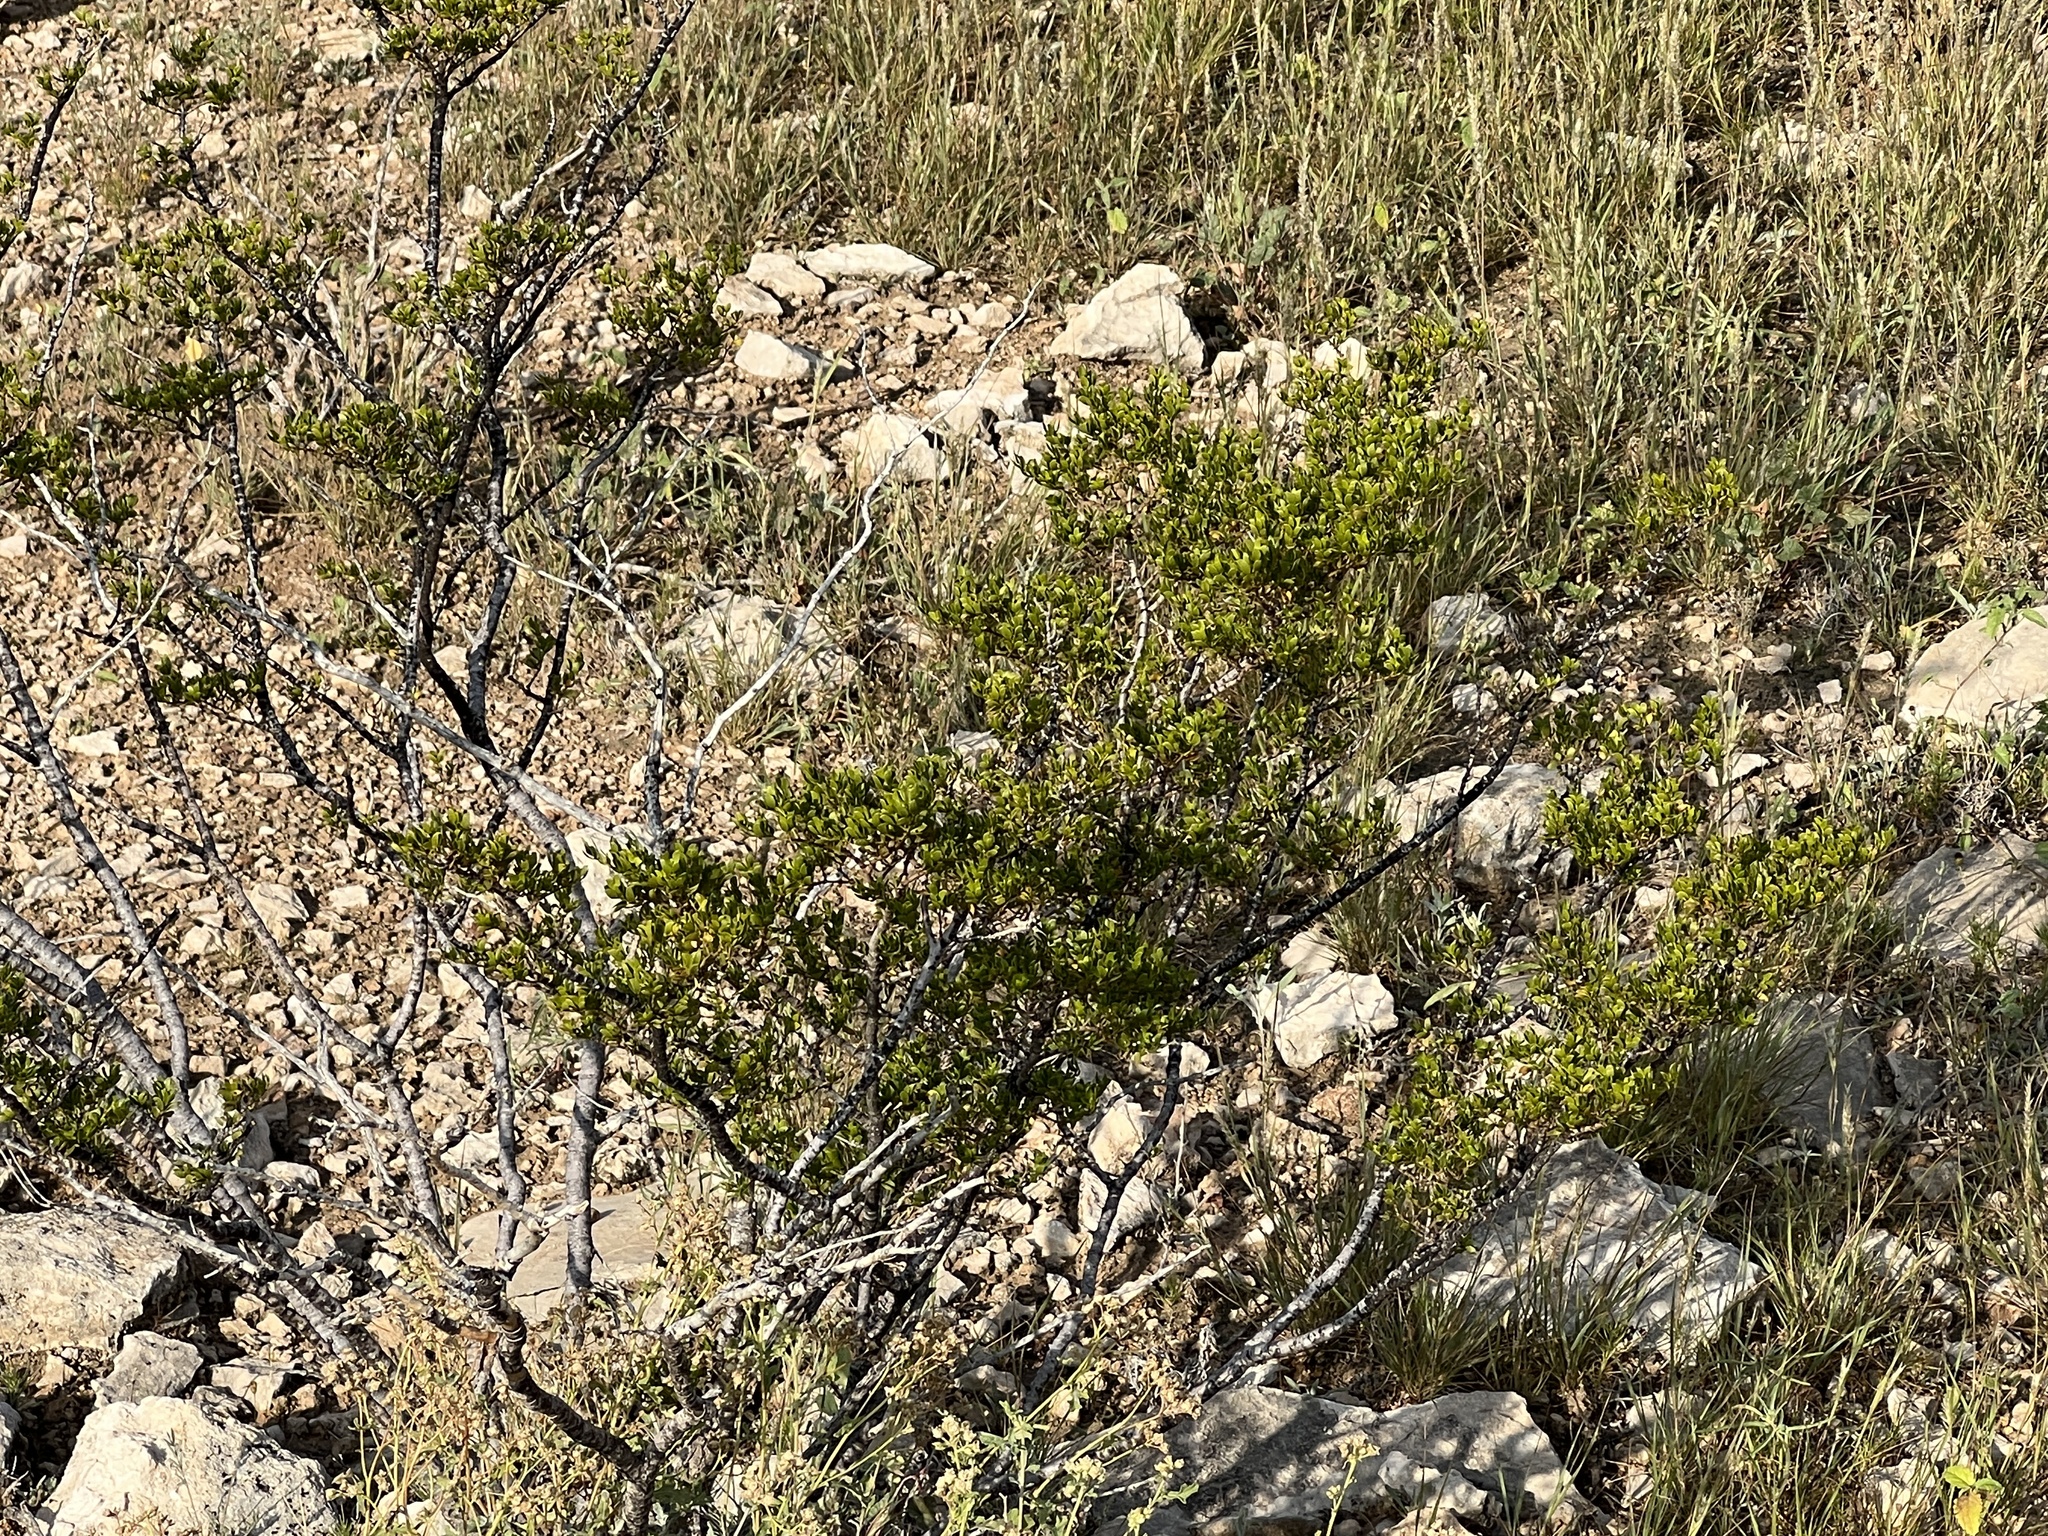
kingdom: Plantae
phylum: Tracheophyta
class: Magnoliopsida
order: Zygophyllales
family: Zygophyllaceae
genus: Larrea
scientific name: Larrea tridentata
